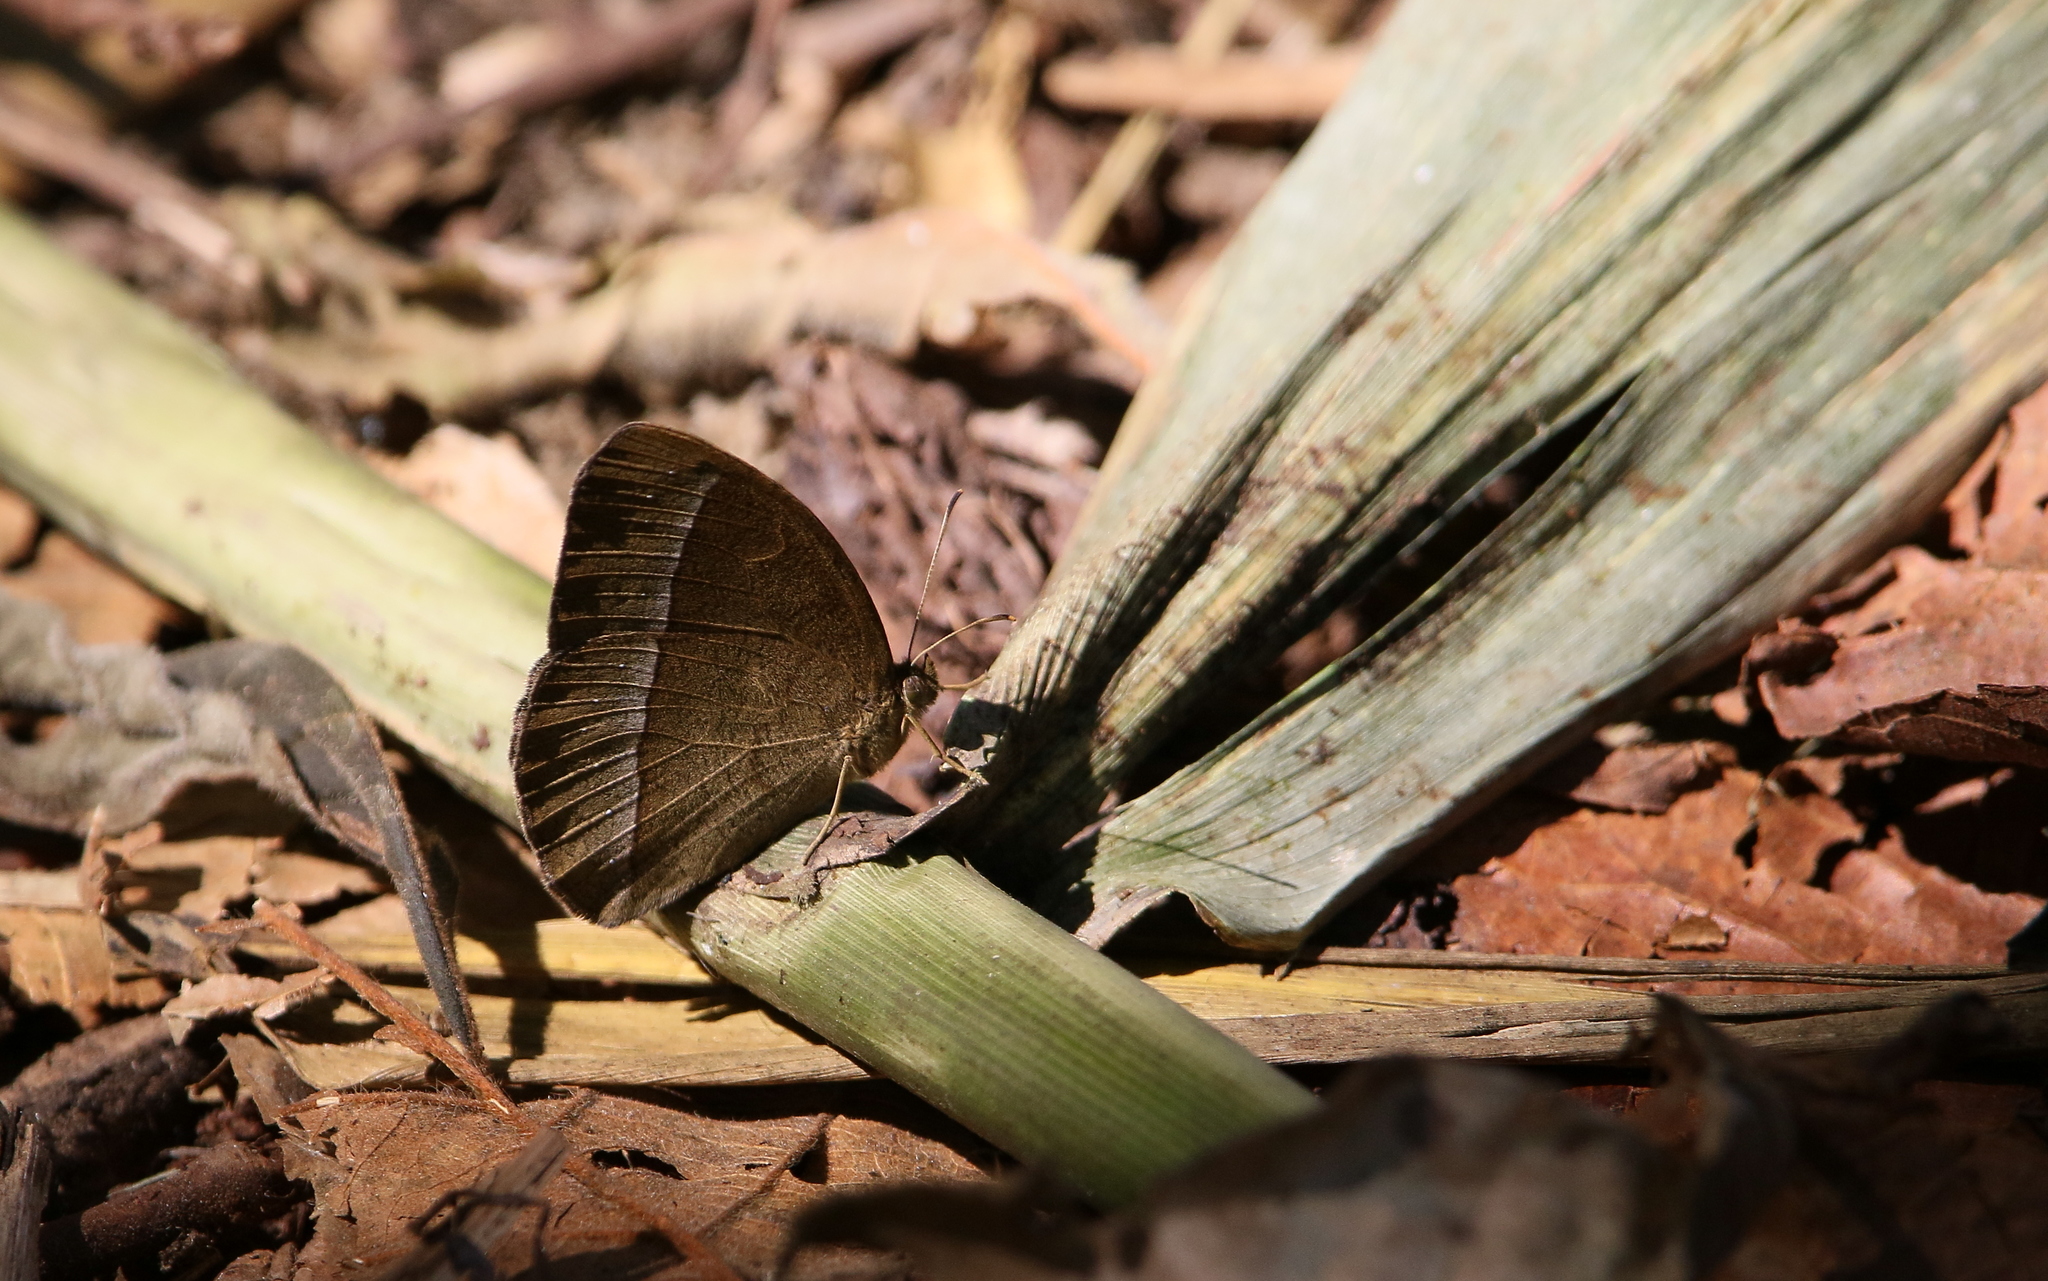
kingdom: Animalia
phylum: Arthropoda
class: Insecta
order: Lepidoptera
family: Nymphalidae
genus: Mycalesis
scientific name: Mycalesis francisca
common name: Lilacine bushbrown
